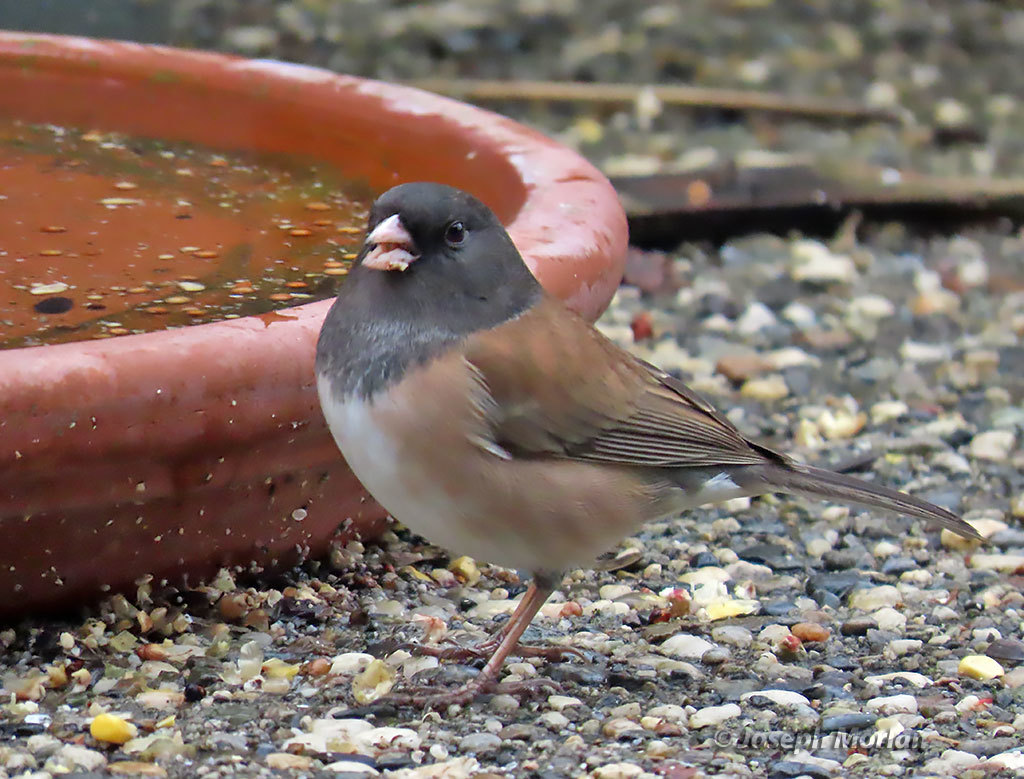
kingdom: Animalia
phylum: Chordata
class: Aves
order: Passeriformes
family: Passerellidae
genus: Junco
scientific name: Junco hyemalis
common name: Dark-eyed junco
